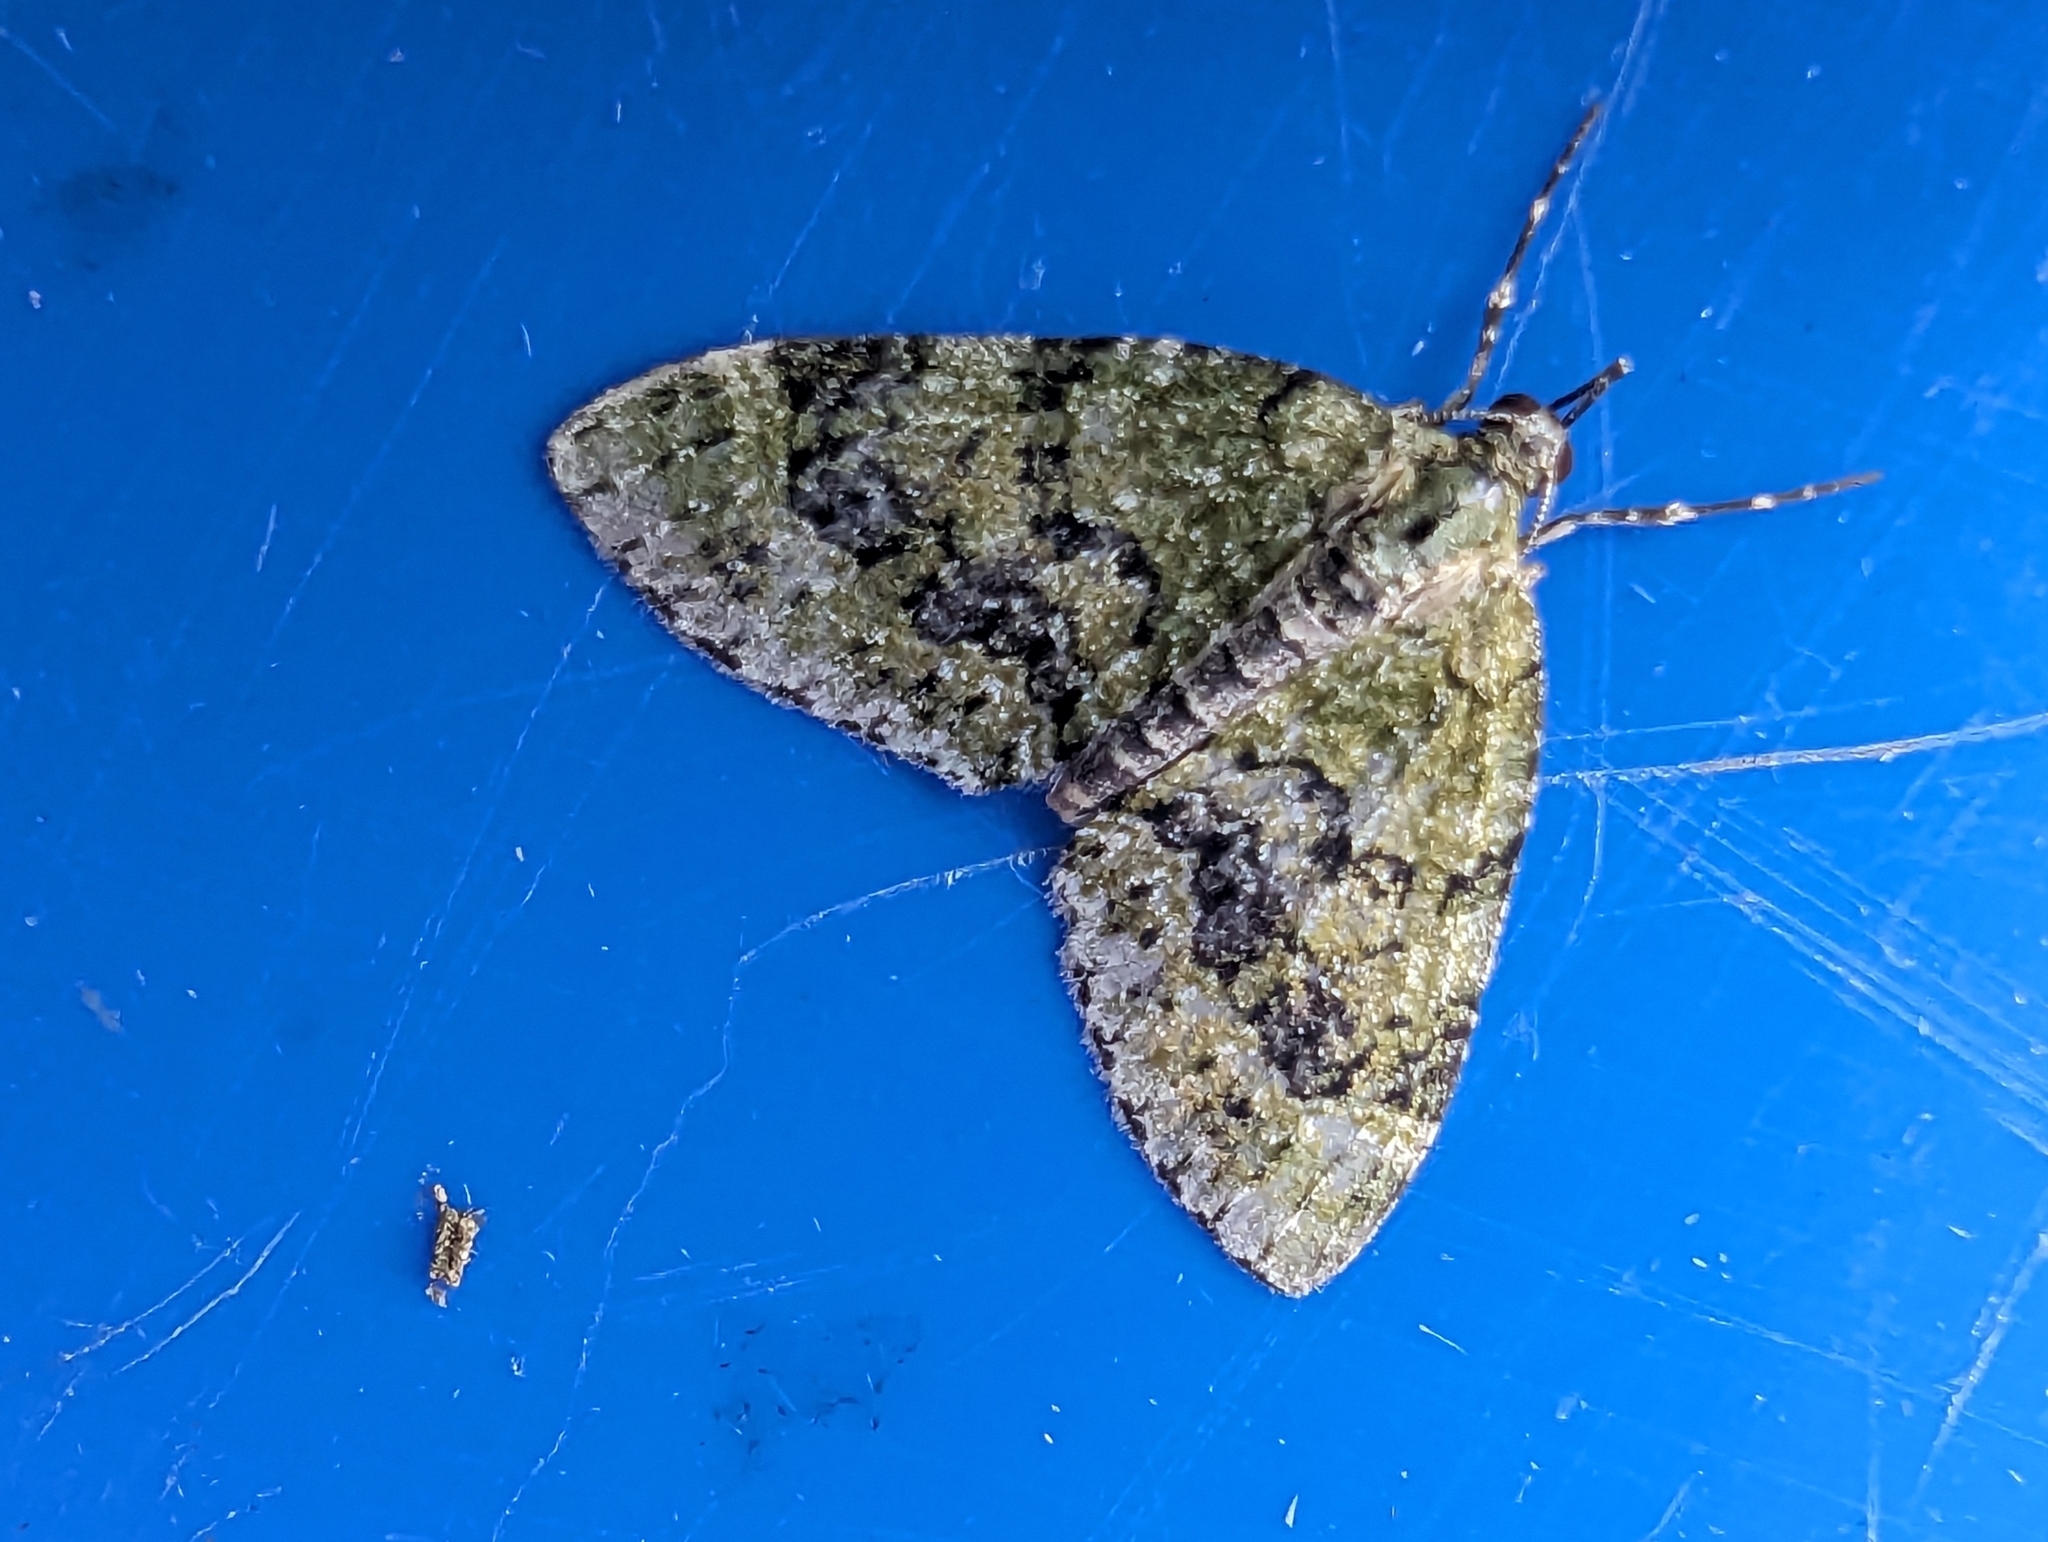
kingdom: Animalia
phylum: Arthropoda
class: Insecta
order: Lepidoptera
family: Geometridae
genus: Acasis
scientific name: Acasis viretata
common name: Yellow-barred brindle
